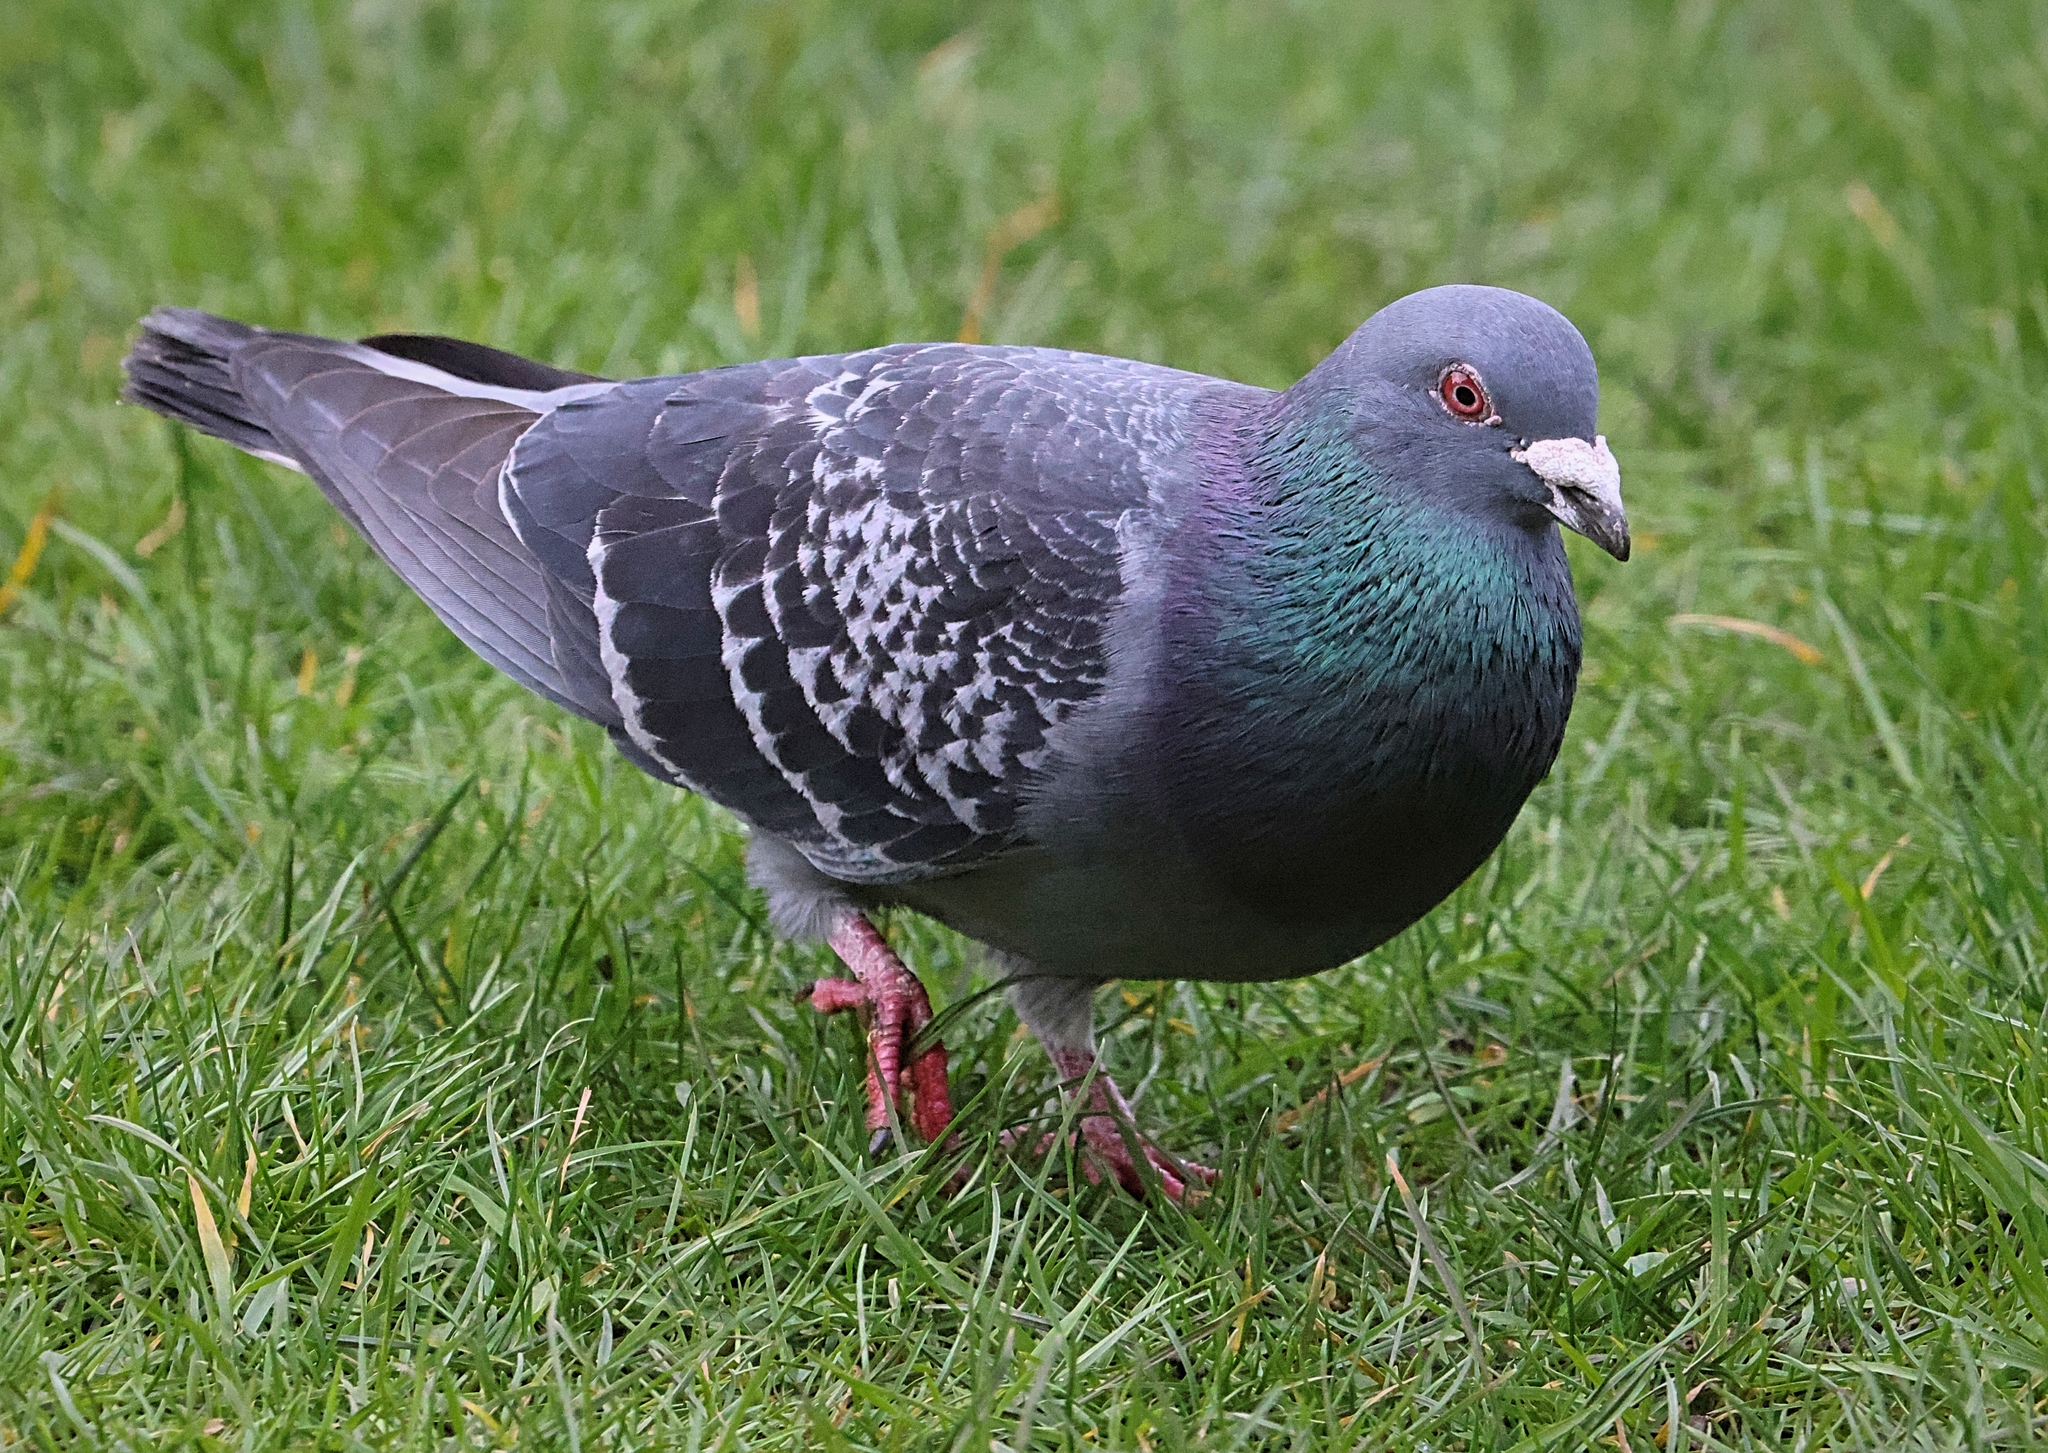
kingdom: Animalia
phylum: Chordata
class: Aves
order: Columbiformes
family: Columbidae
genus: Columba
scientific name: Columba livia
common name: Rock pigeon
